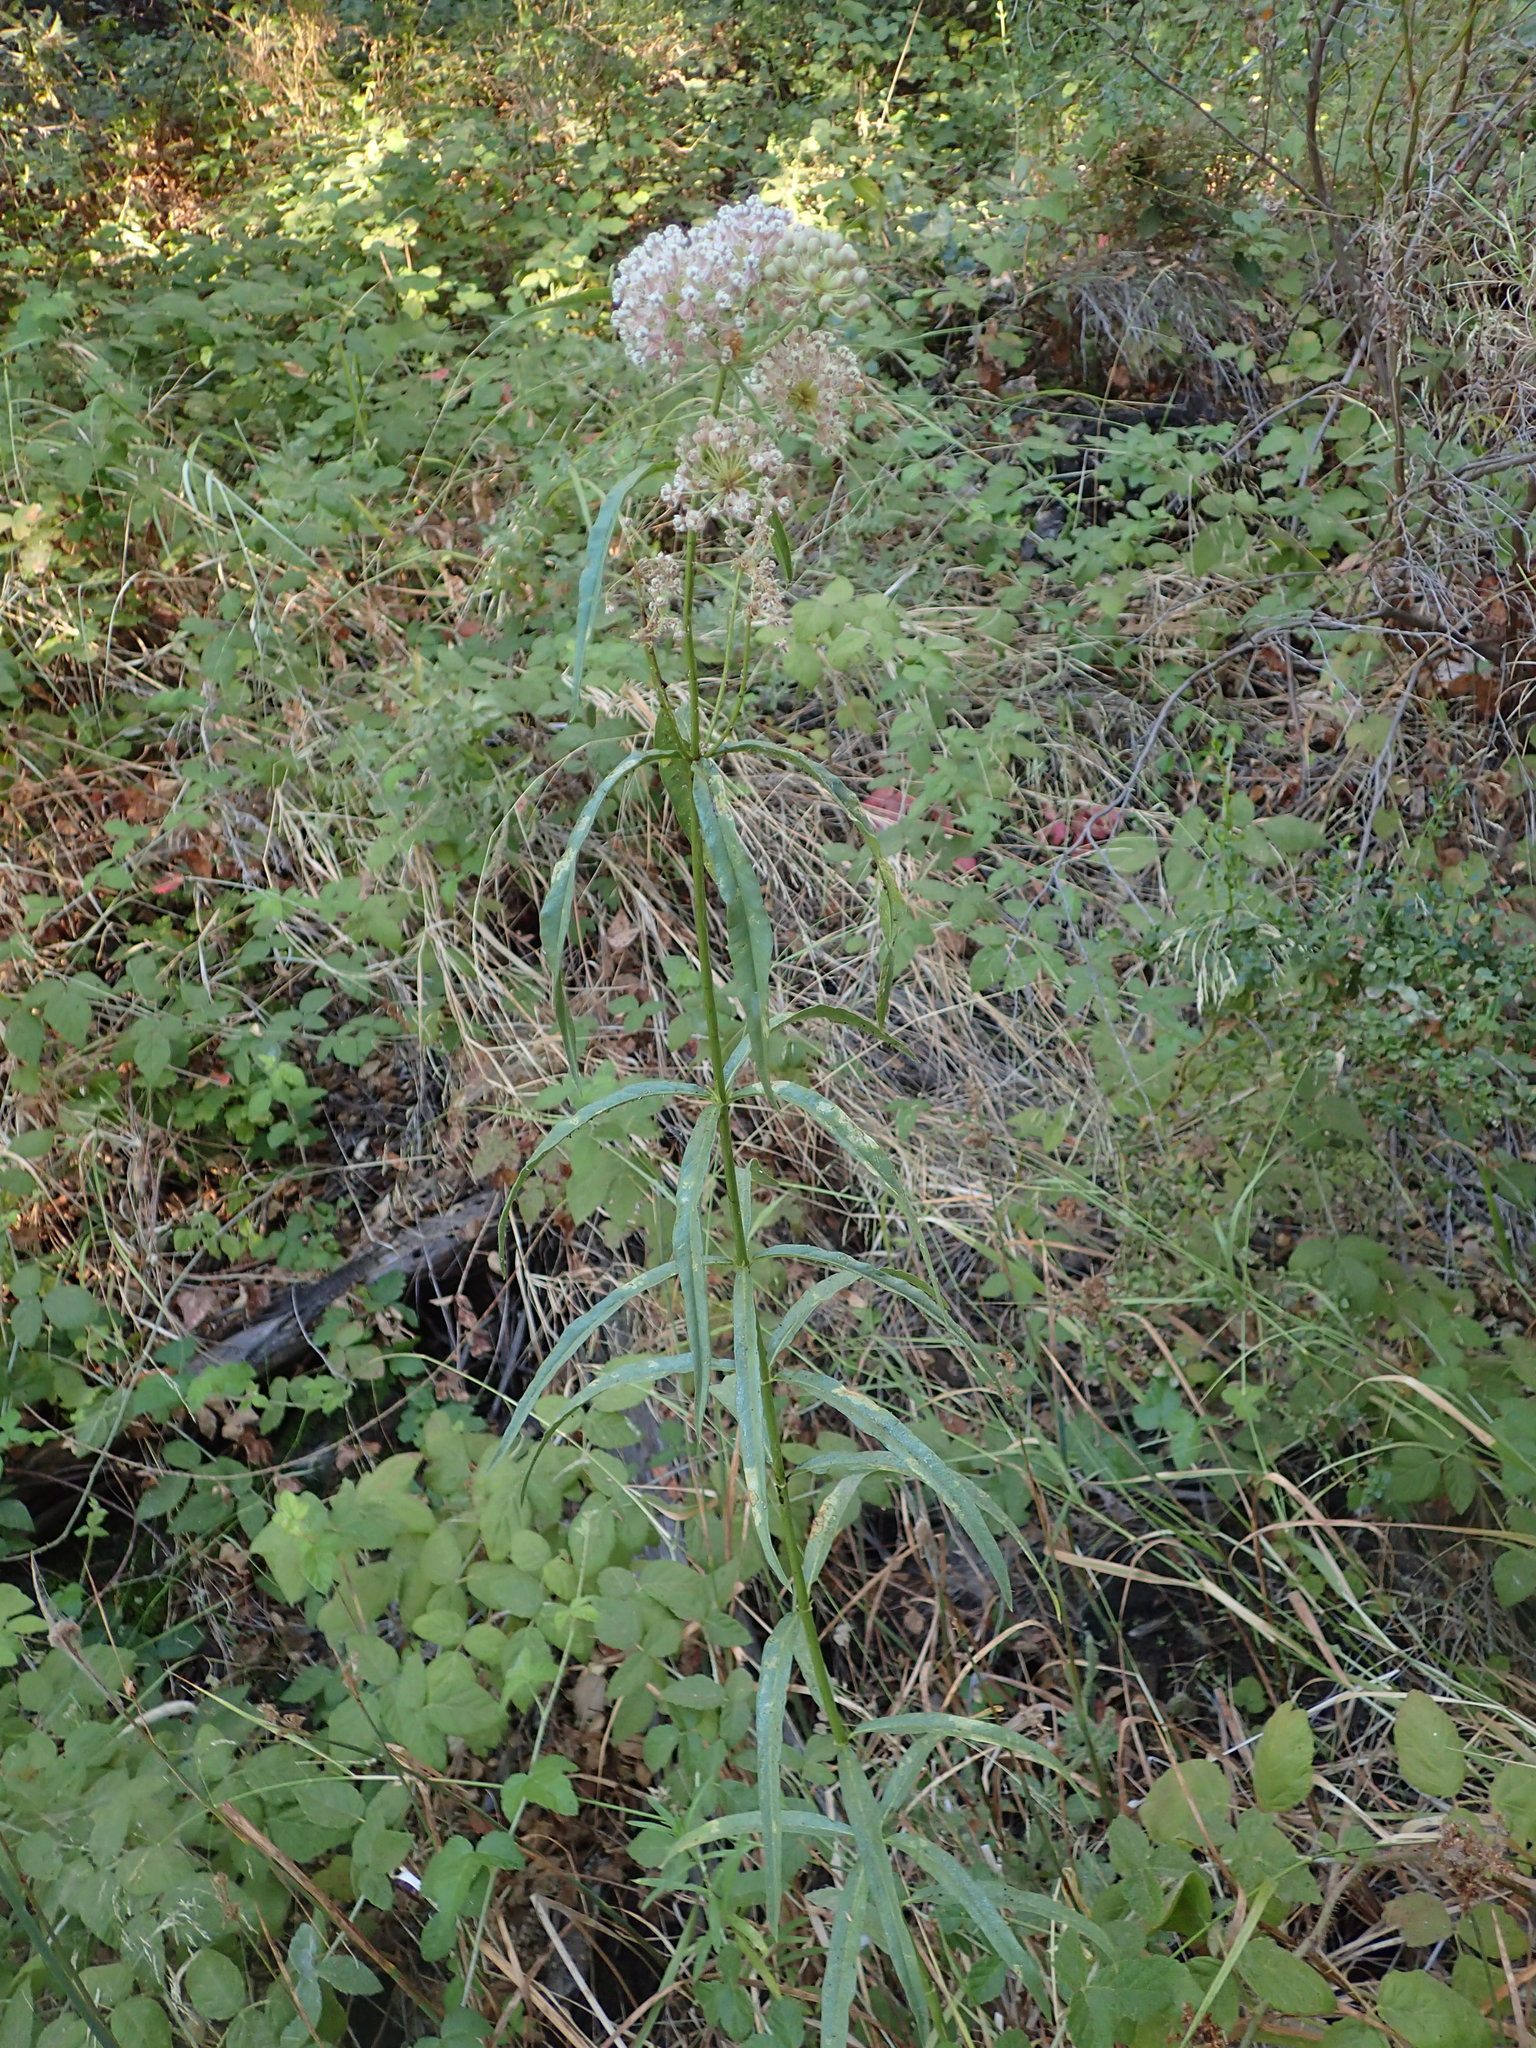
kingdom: Plantae
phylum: Tracheophyta
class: Magnoliopsida
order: Gentianales
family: Apocynaceae
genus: Asclepias
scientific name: Asclepias fascicularis
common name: Mexican milkweed
